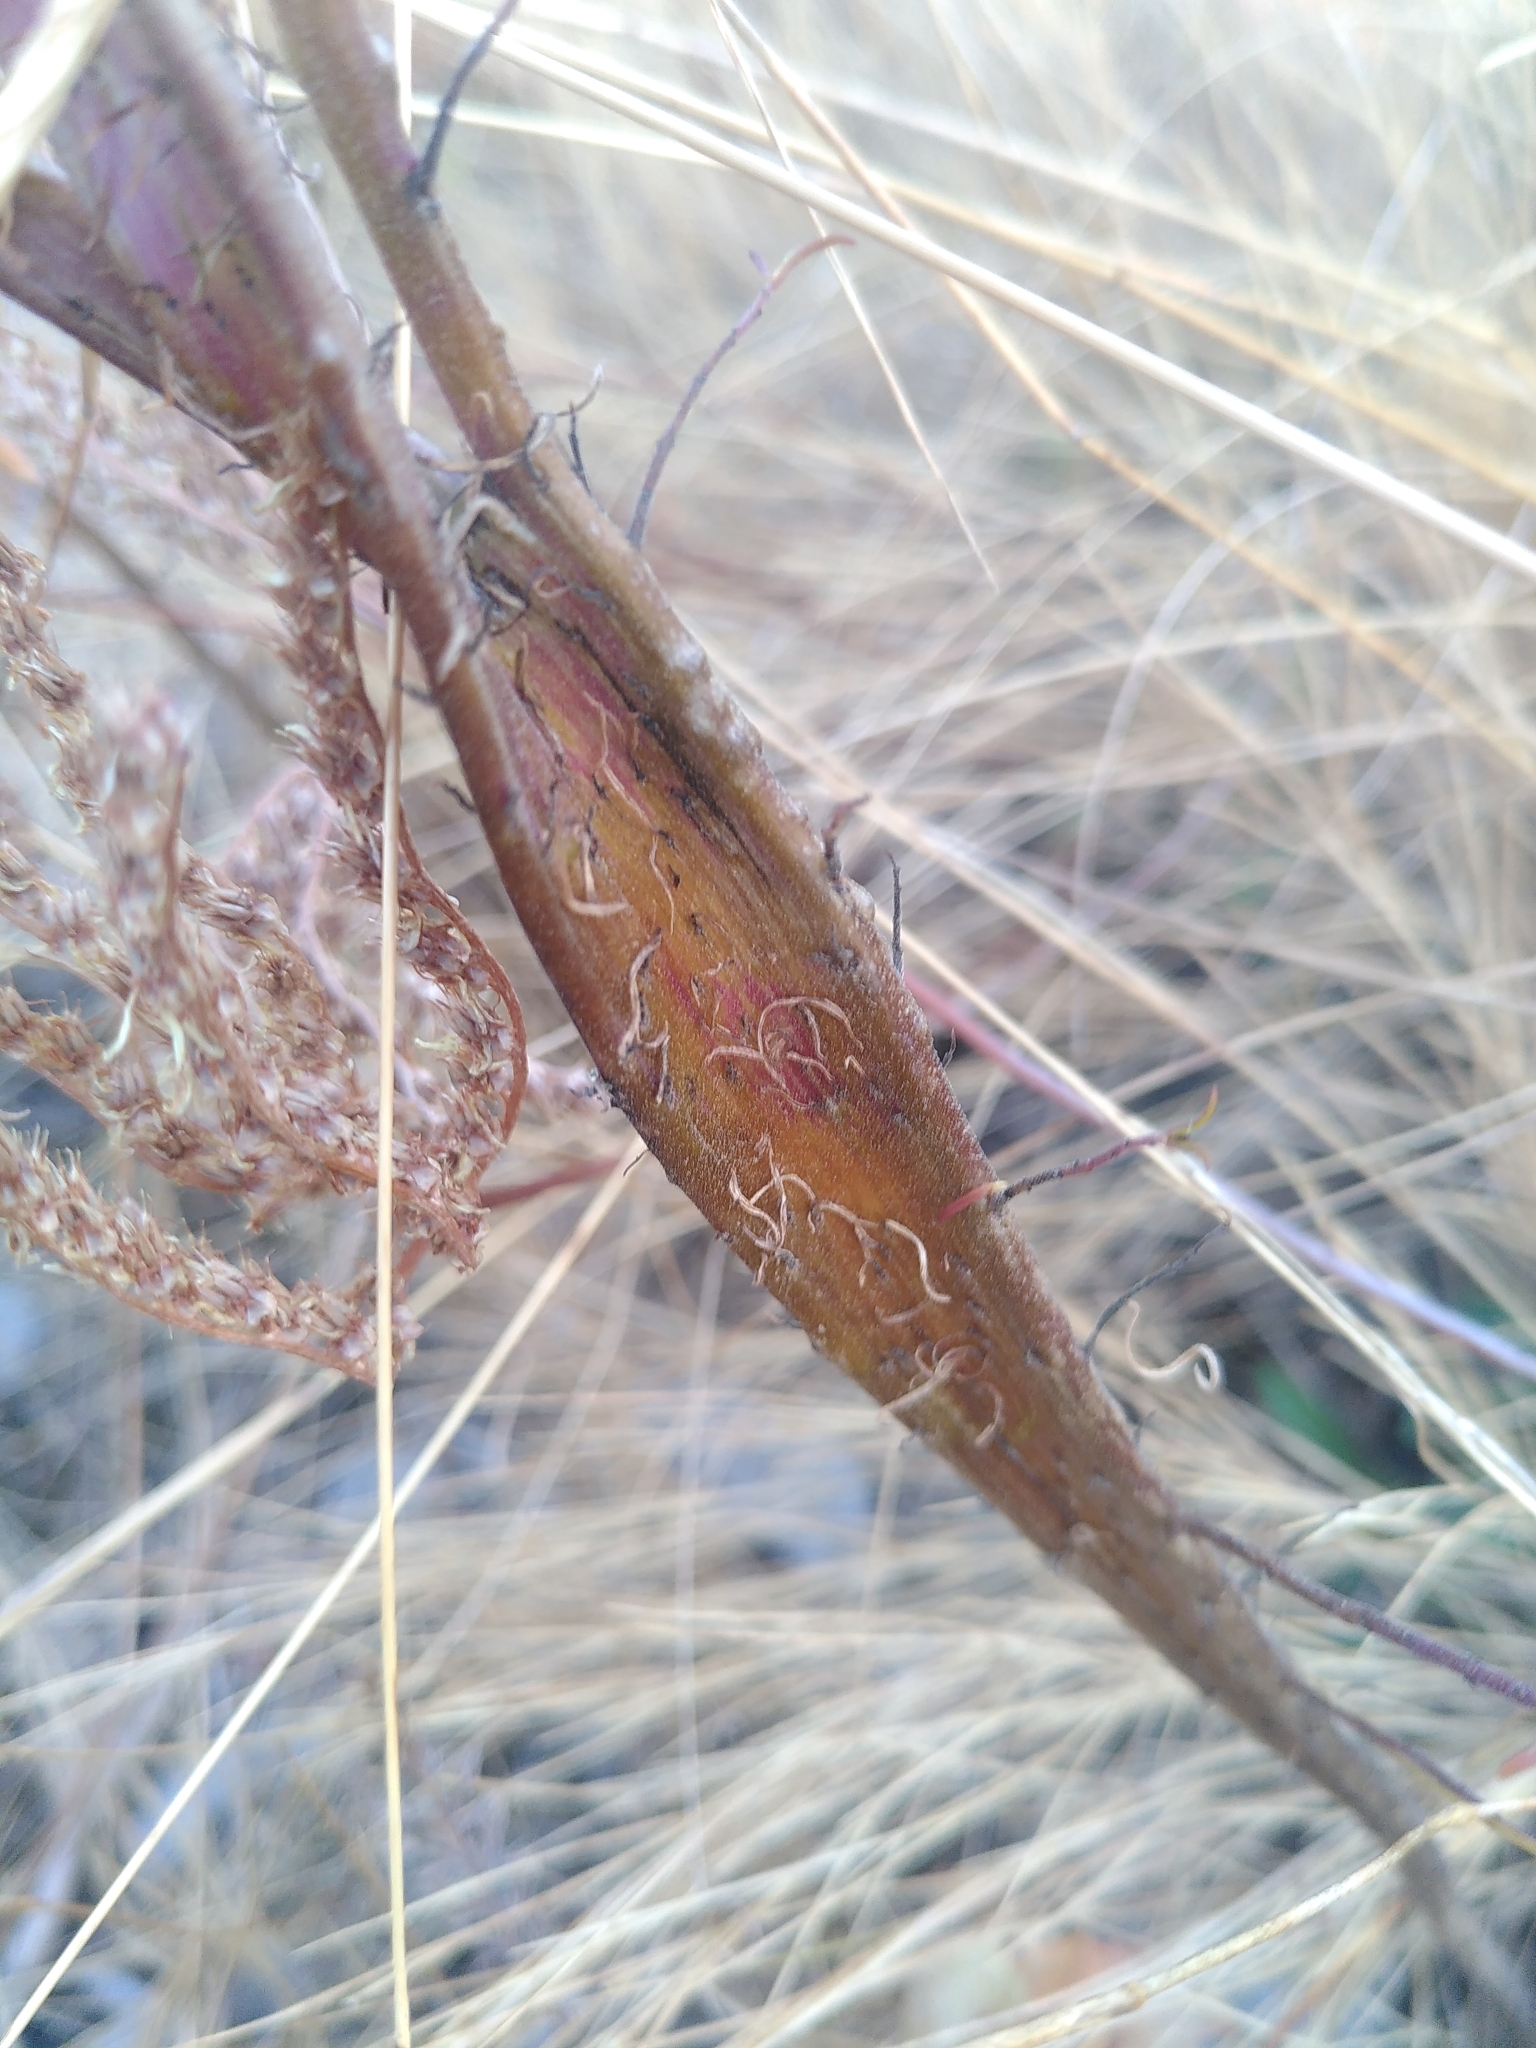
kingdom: Plantae
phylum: Tracheophyta
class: Magnoliopsida
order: Lamiales
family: Orobanchaceae
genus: Odontites
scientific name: Odontites luteus
